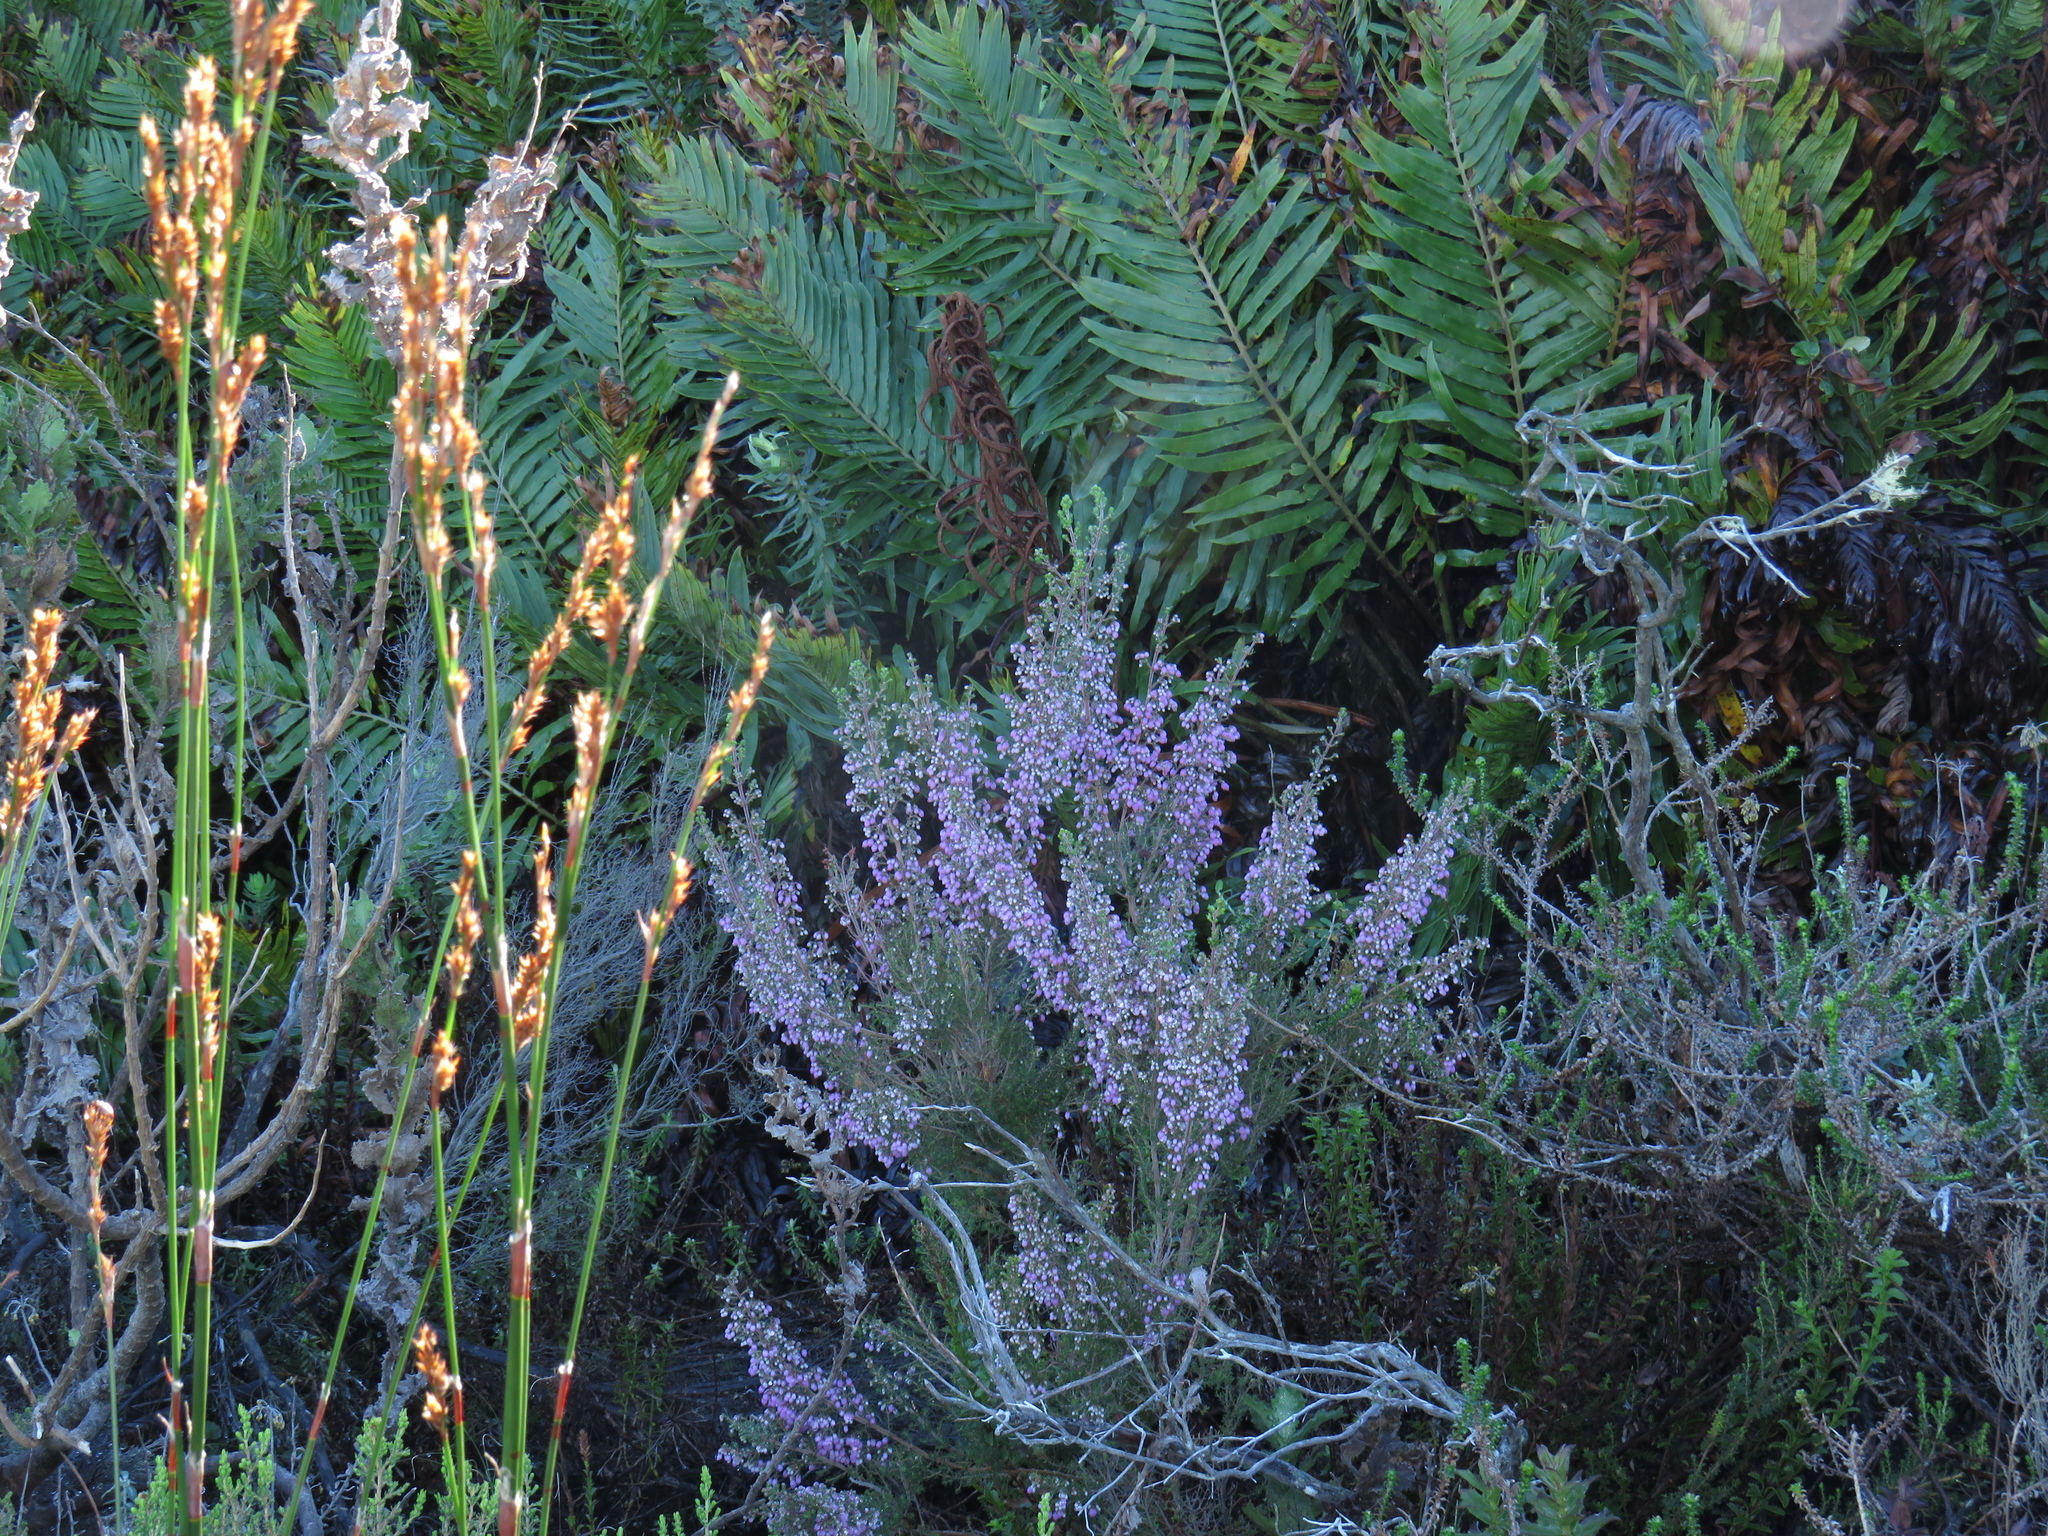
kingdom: Plantae
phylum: Tracheophyta
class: Magnoliopsida
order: Ericales
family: Ericaceae
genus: Erica
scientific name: Erica hirtiflora
